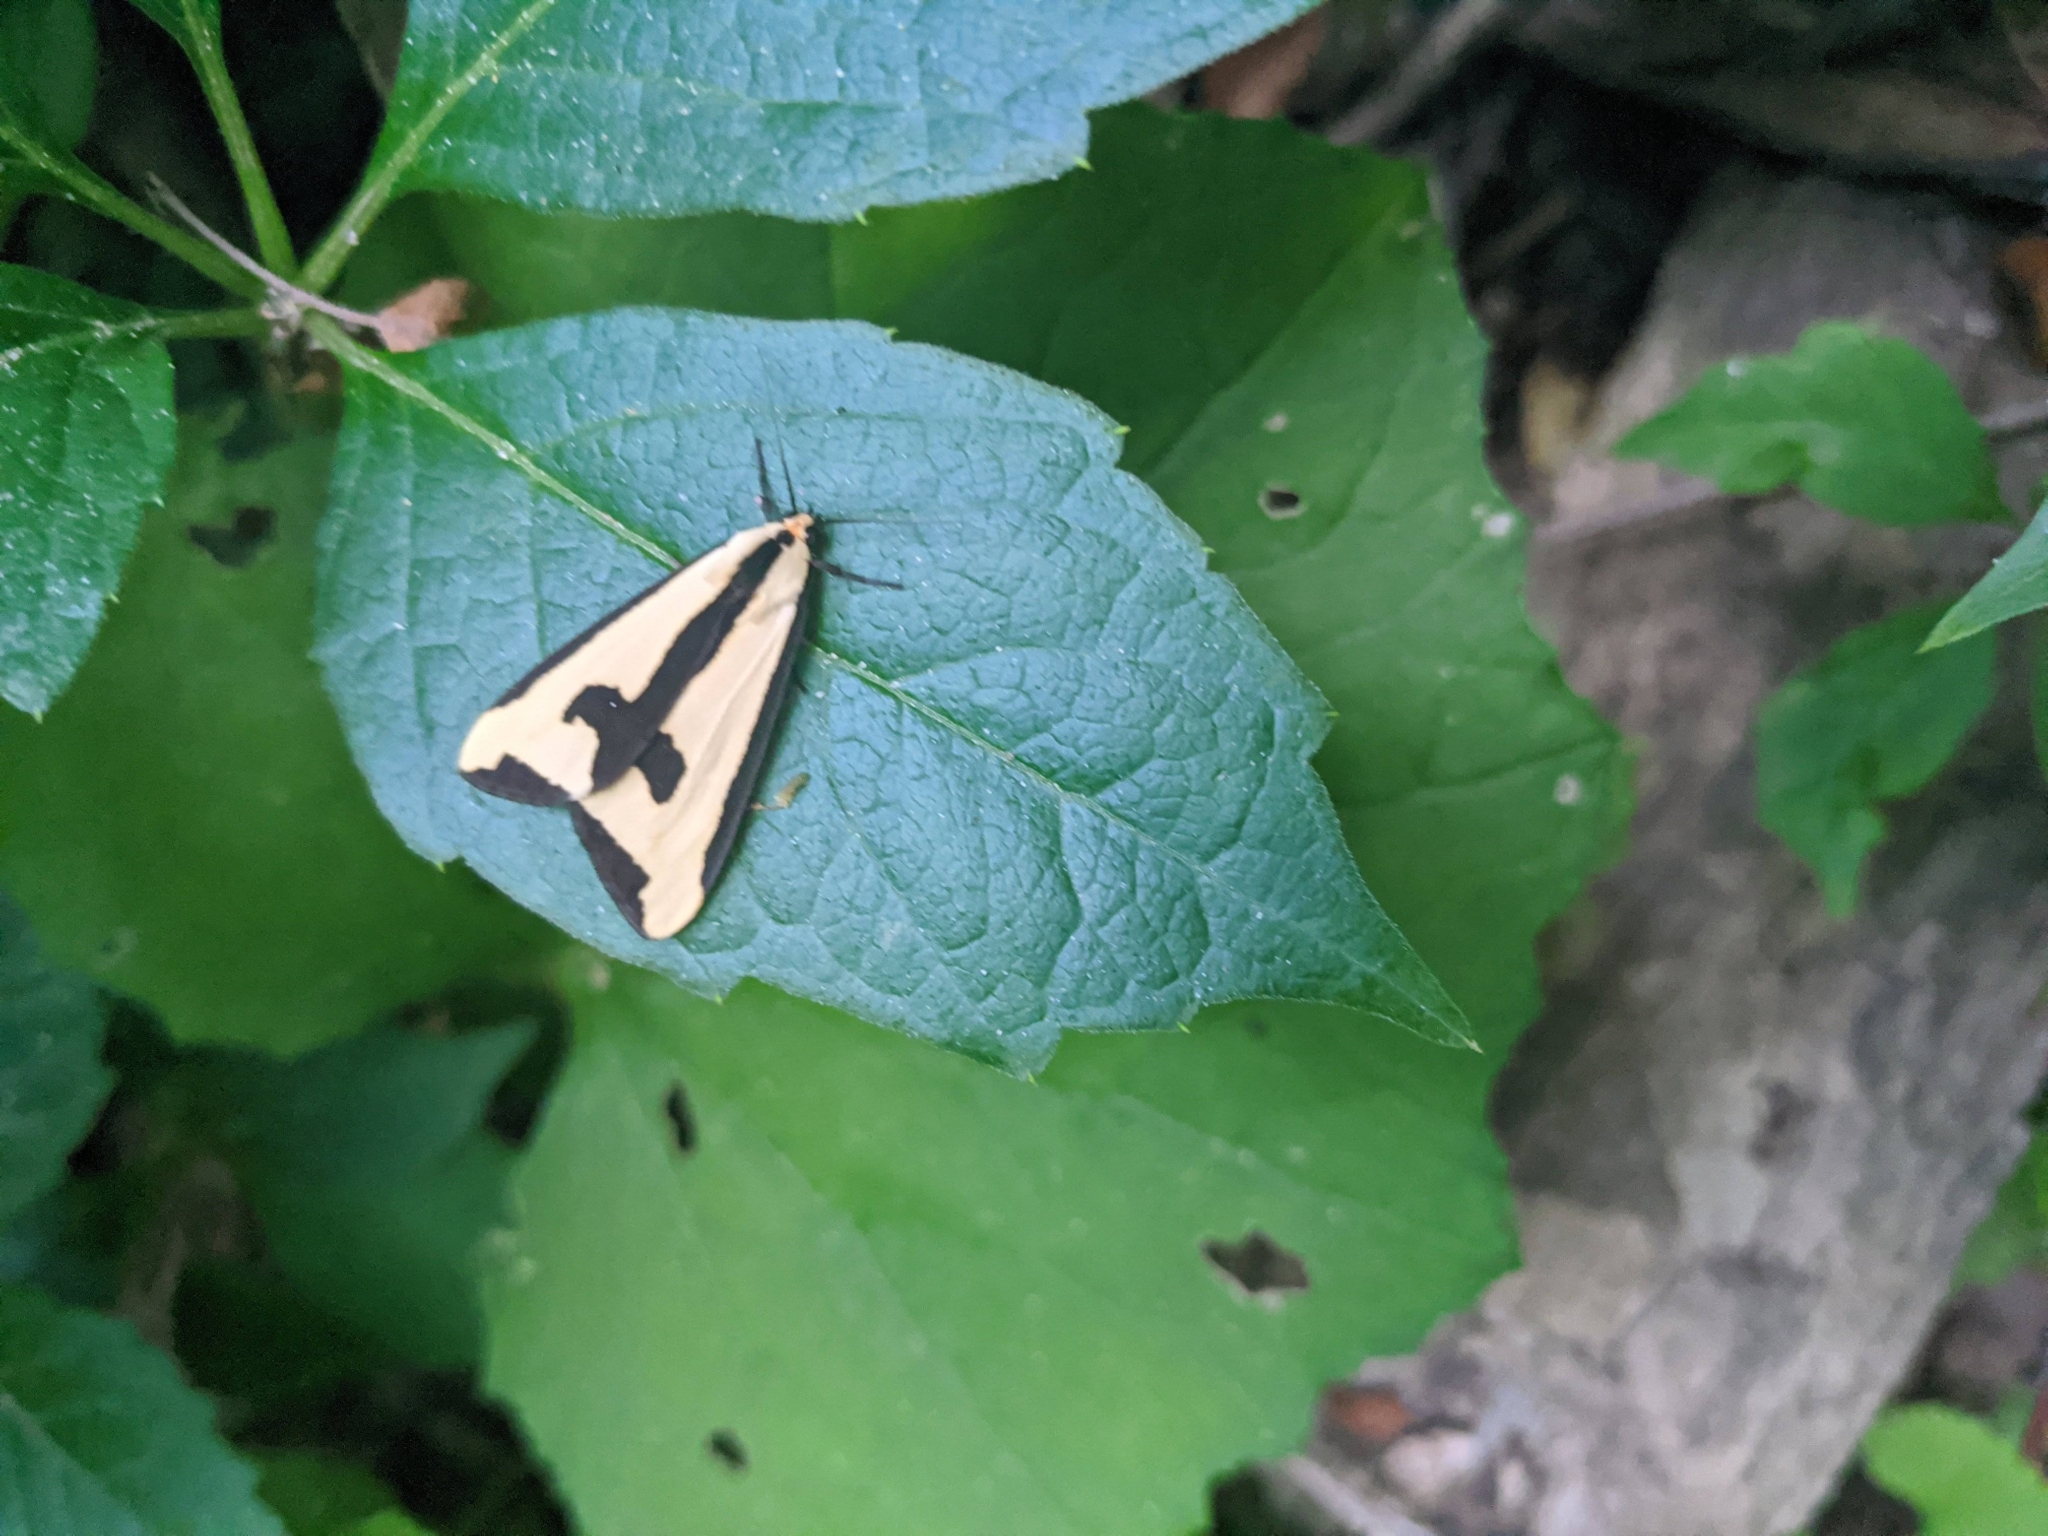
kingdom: Animalia
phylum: Arthropoda
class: Insecta
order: Lepidoptera
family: Erebidae
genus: Haploa
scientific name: Haploa clymene
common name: Clymene moth
